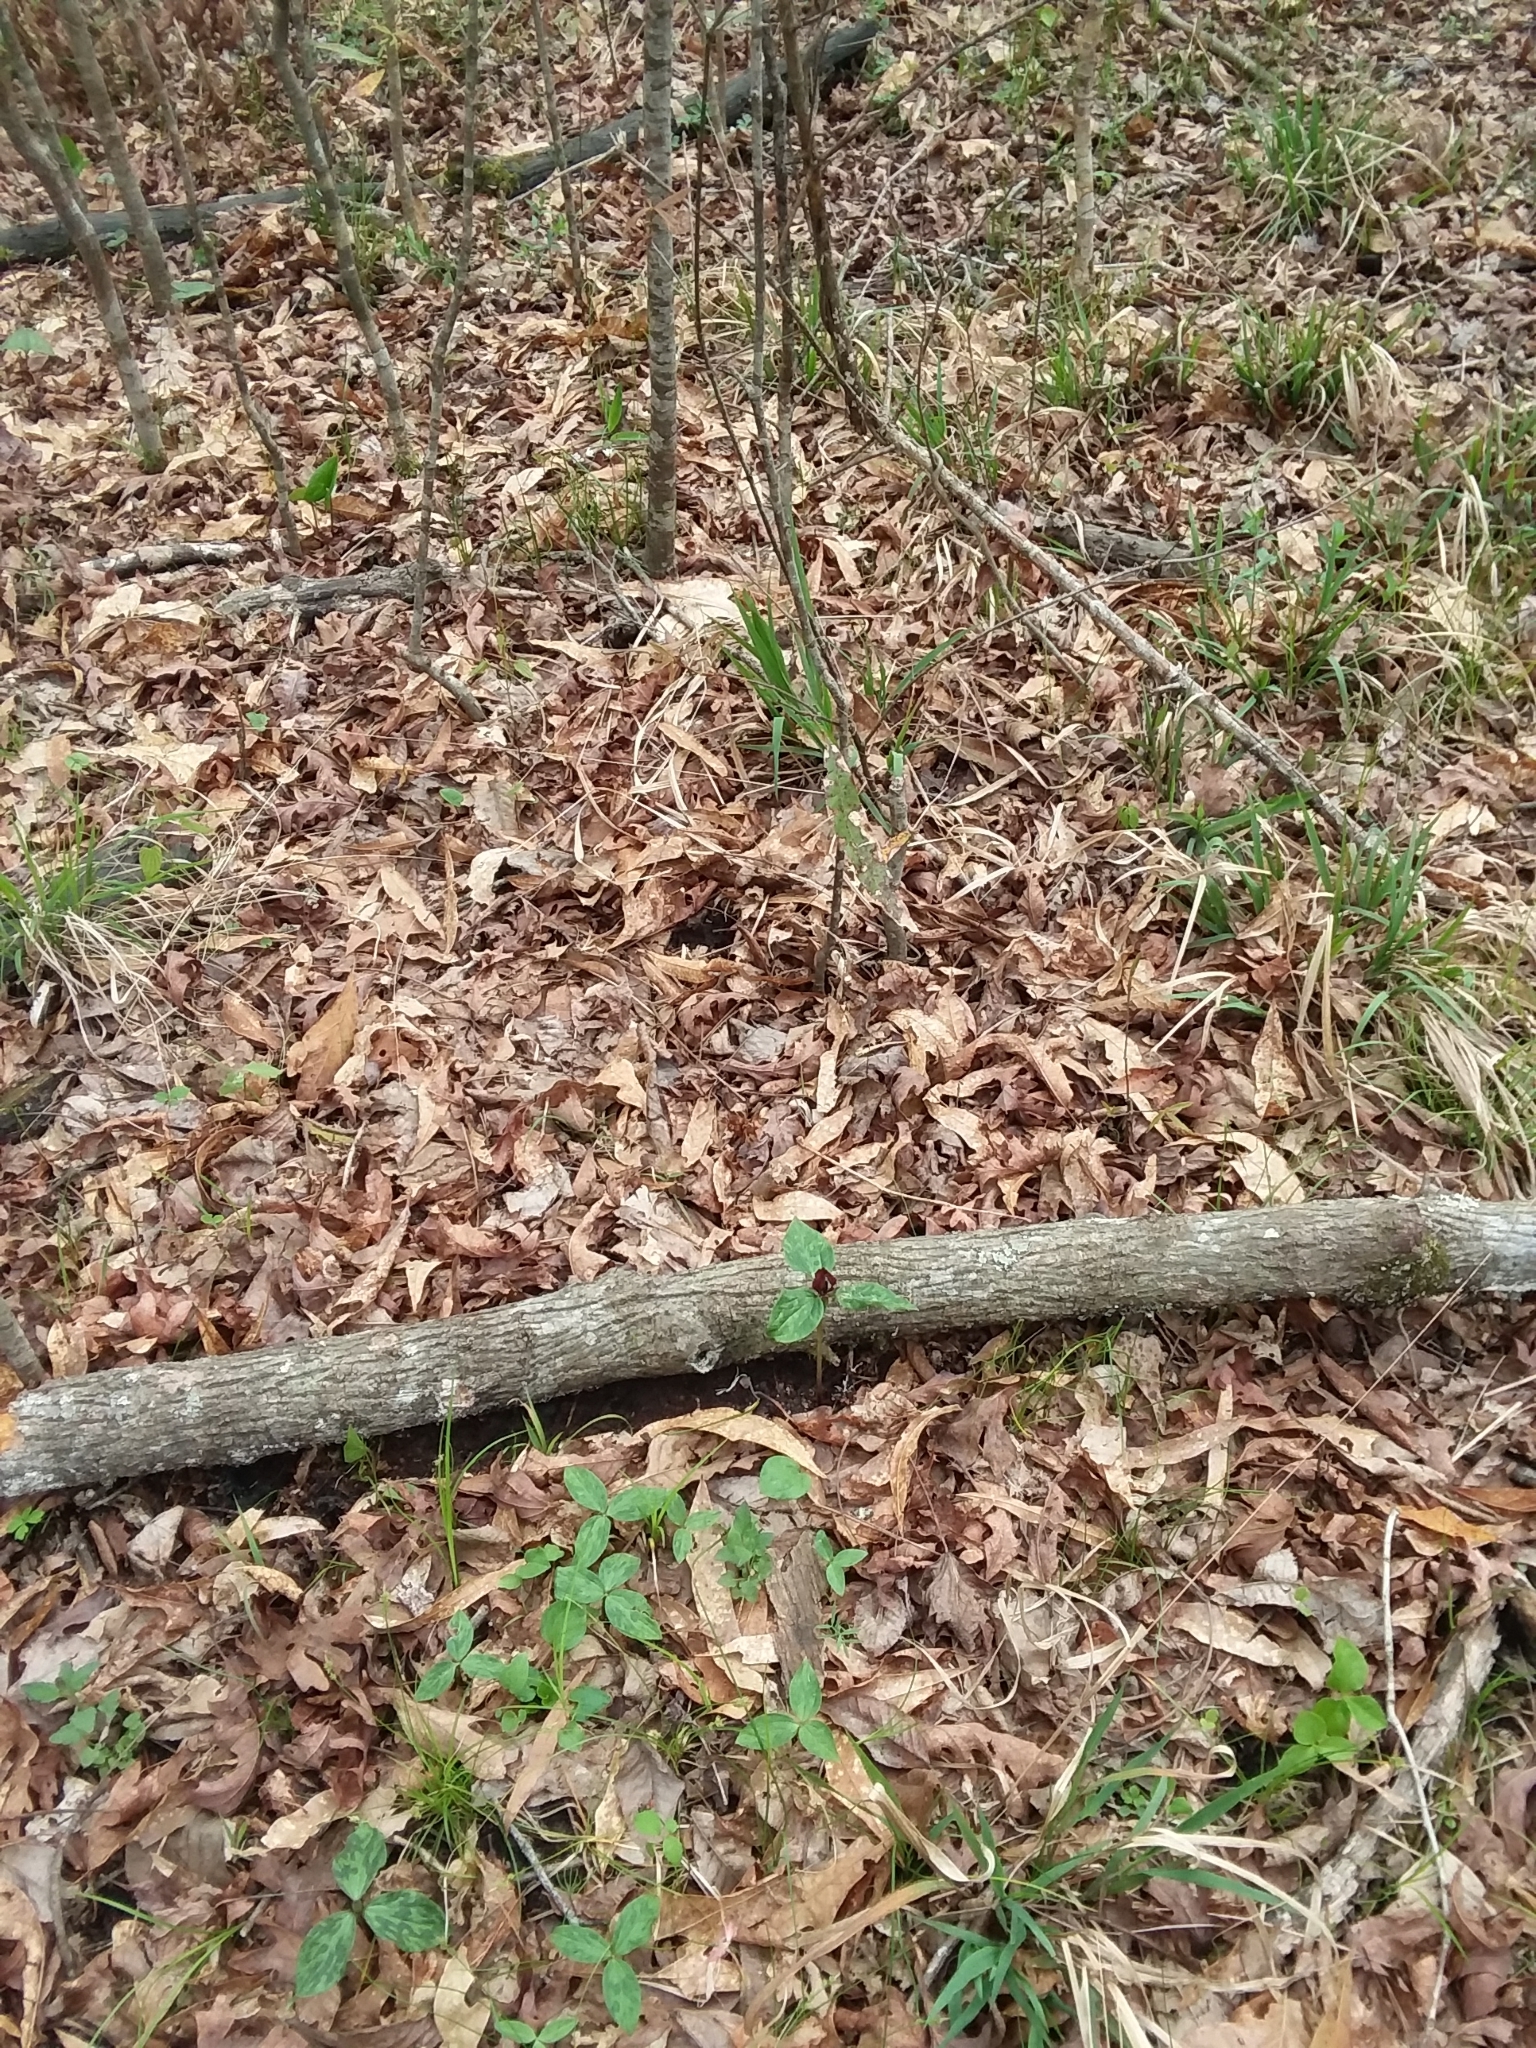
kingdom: Plantae
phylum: Tracheophyta
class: Liliopsida
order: Liliales
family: Melanthiaceae
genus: Trillium
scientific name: Trillium recurvatum
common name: Bloody butcher
